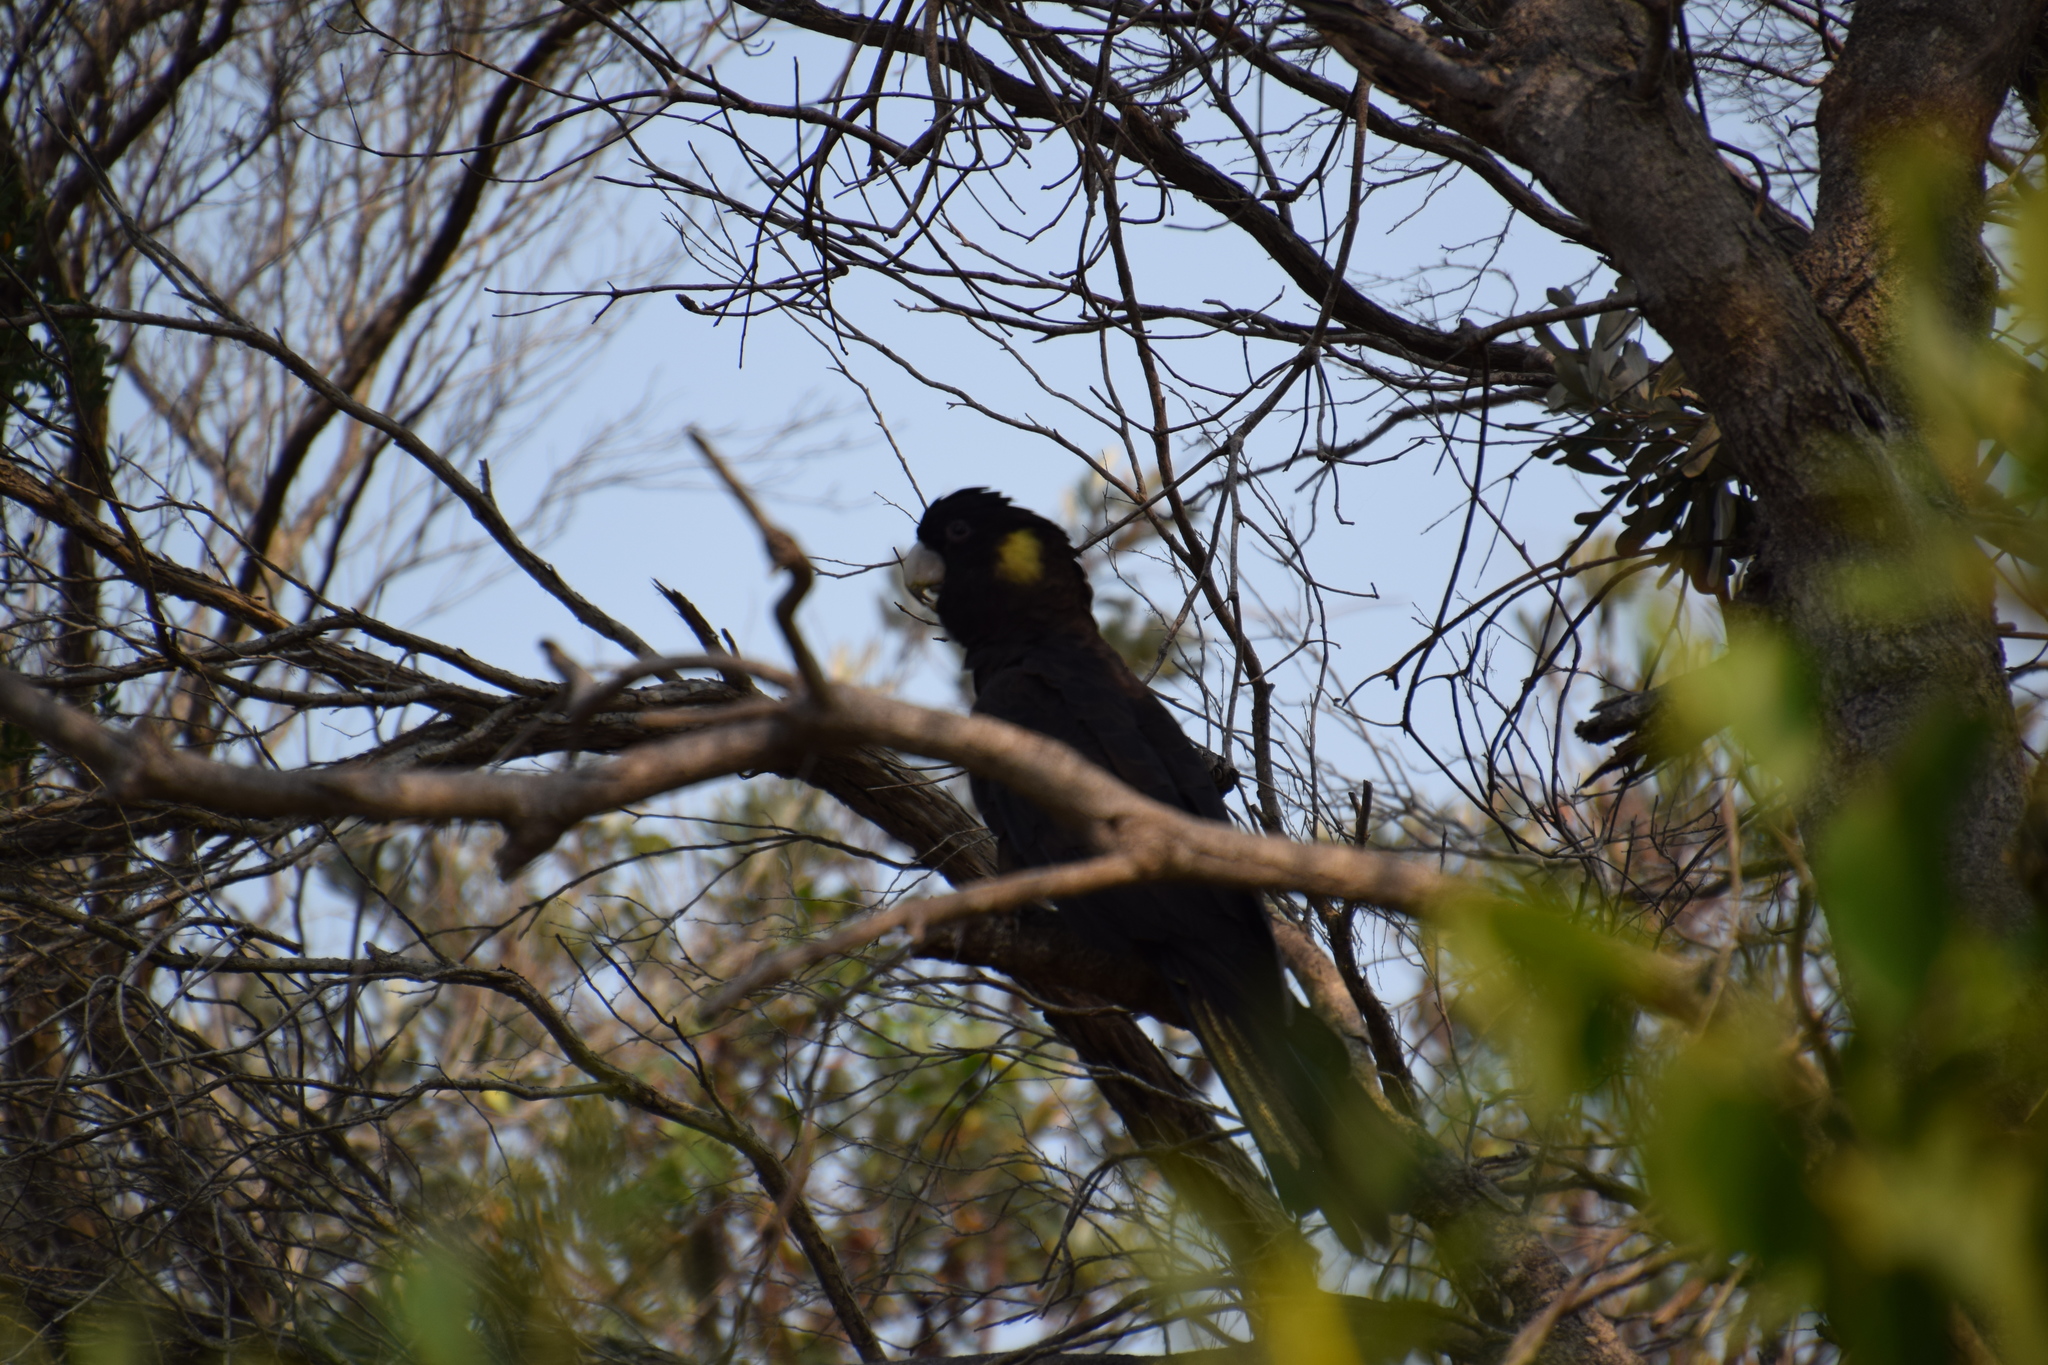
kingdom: Animalia
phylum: Chordata
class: Aves
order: Psittaciformes
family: Cacatuidae
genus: Zanda
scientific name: Zanda funerea
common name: Yellow-tailed black-cockatoo
